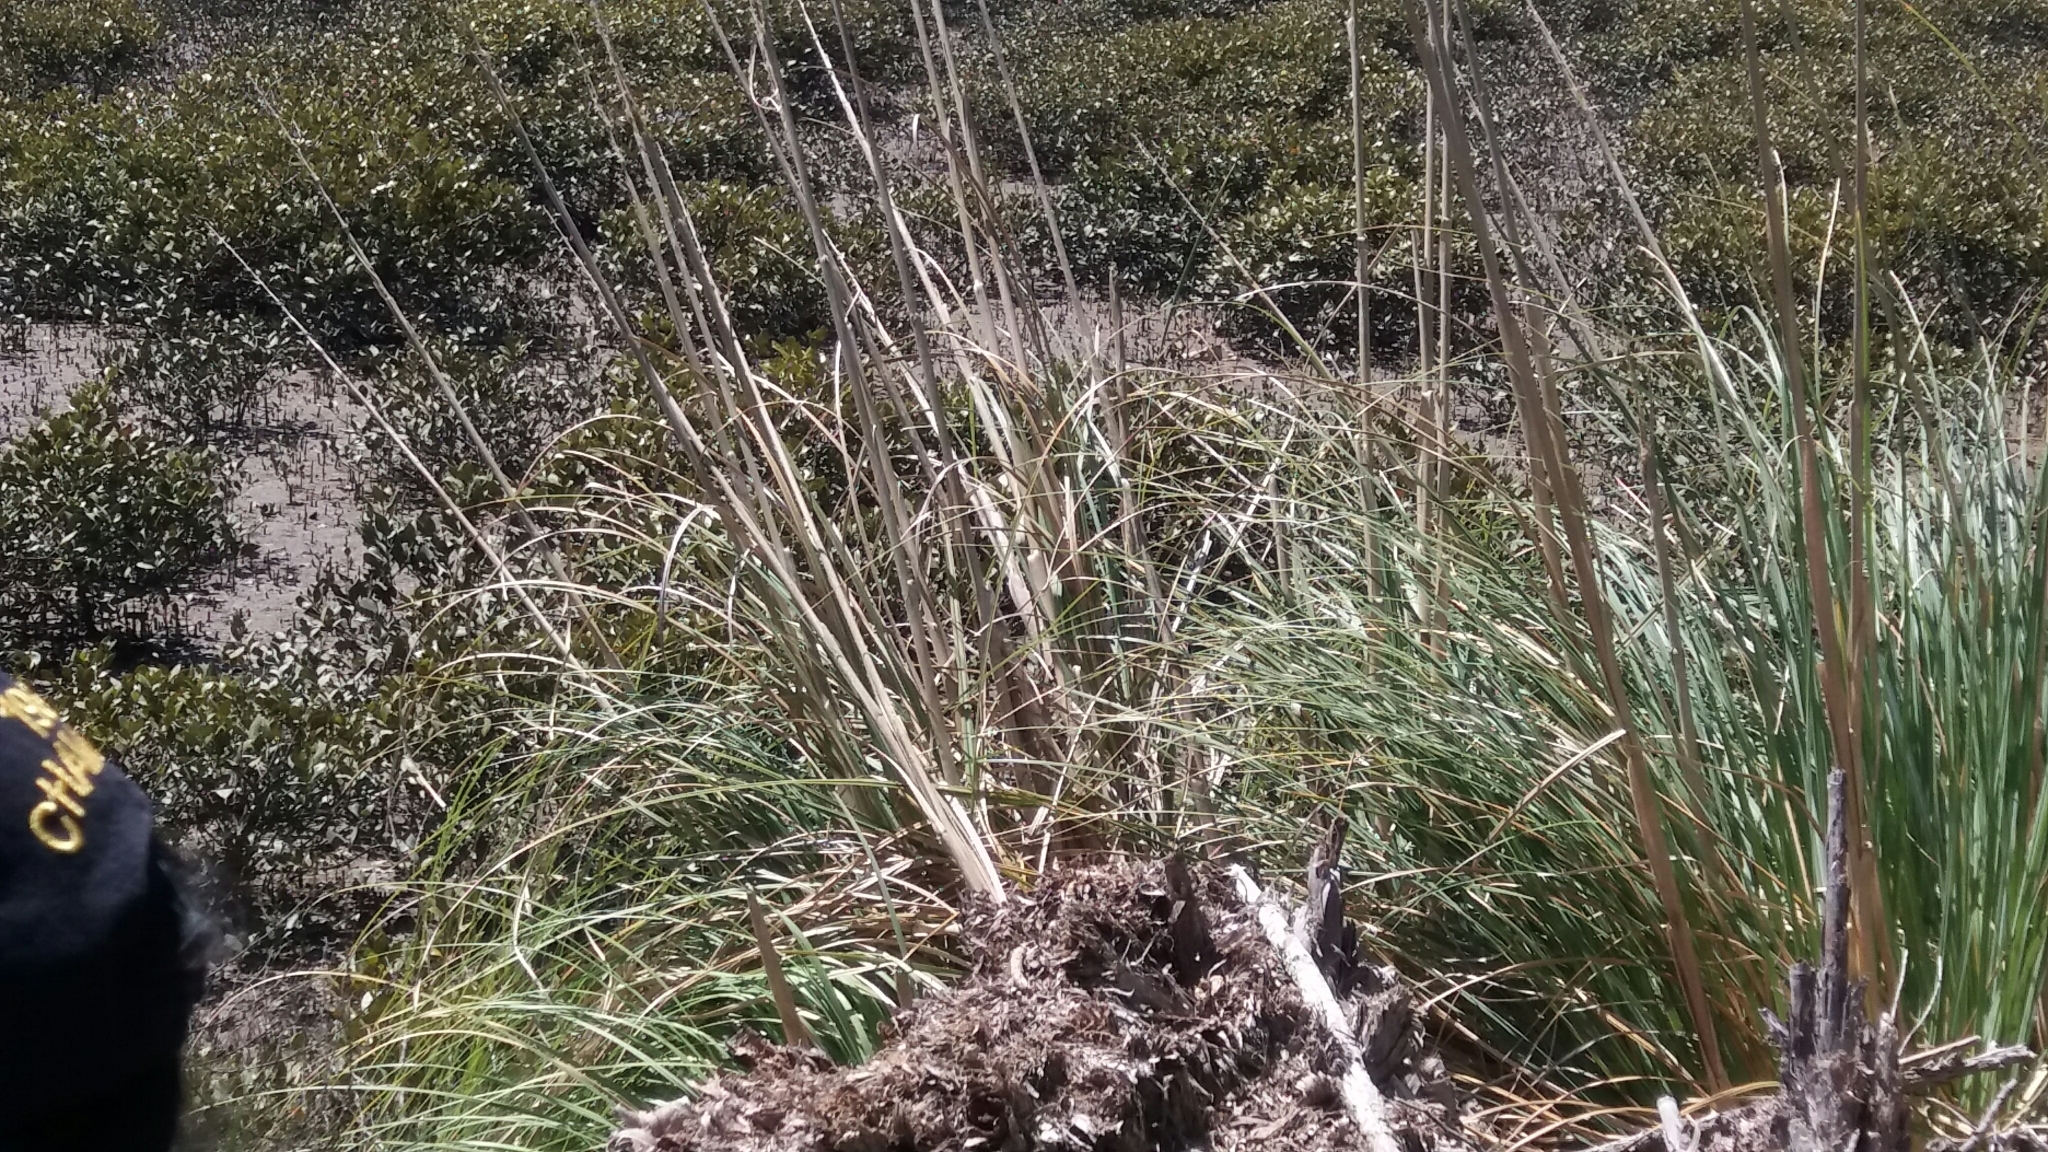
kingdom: Plantae
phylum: Tracheophyta
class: Liliopsida
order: Poales
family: Poaceae
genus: Cortaderia
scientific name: Cortaderia selloana
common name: Uruguayan pampas grass
